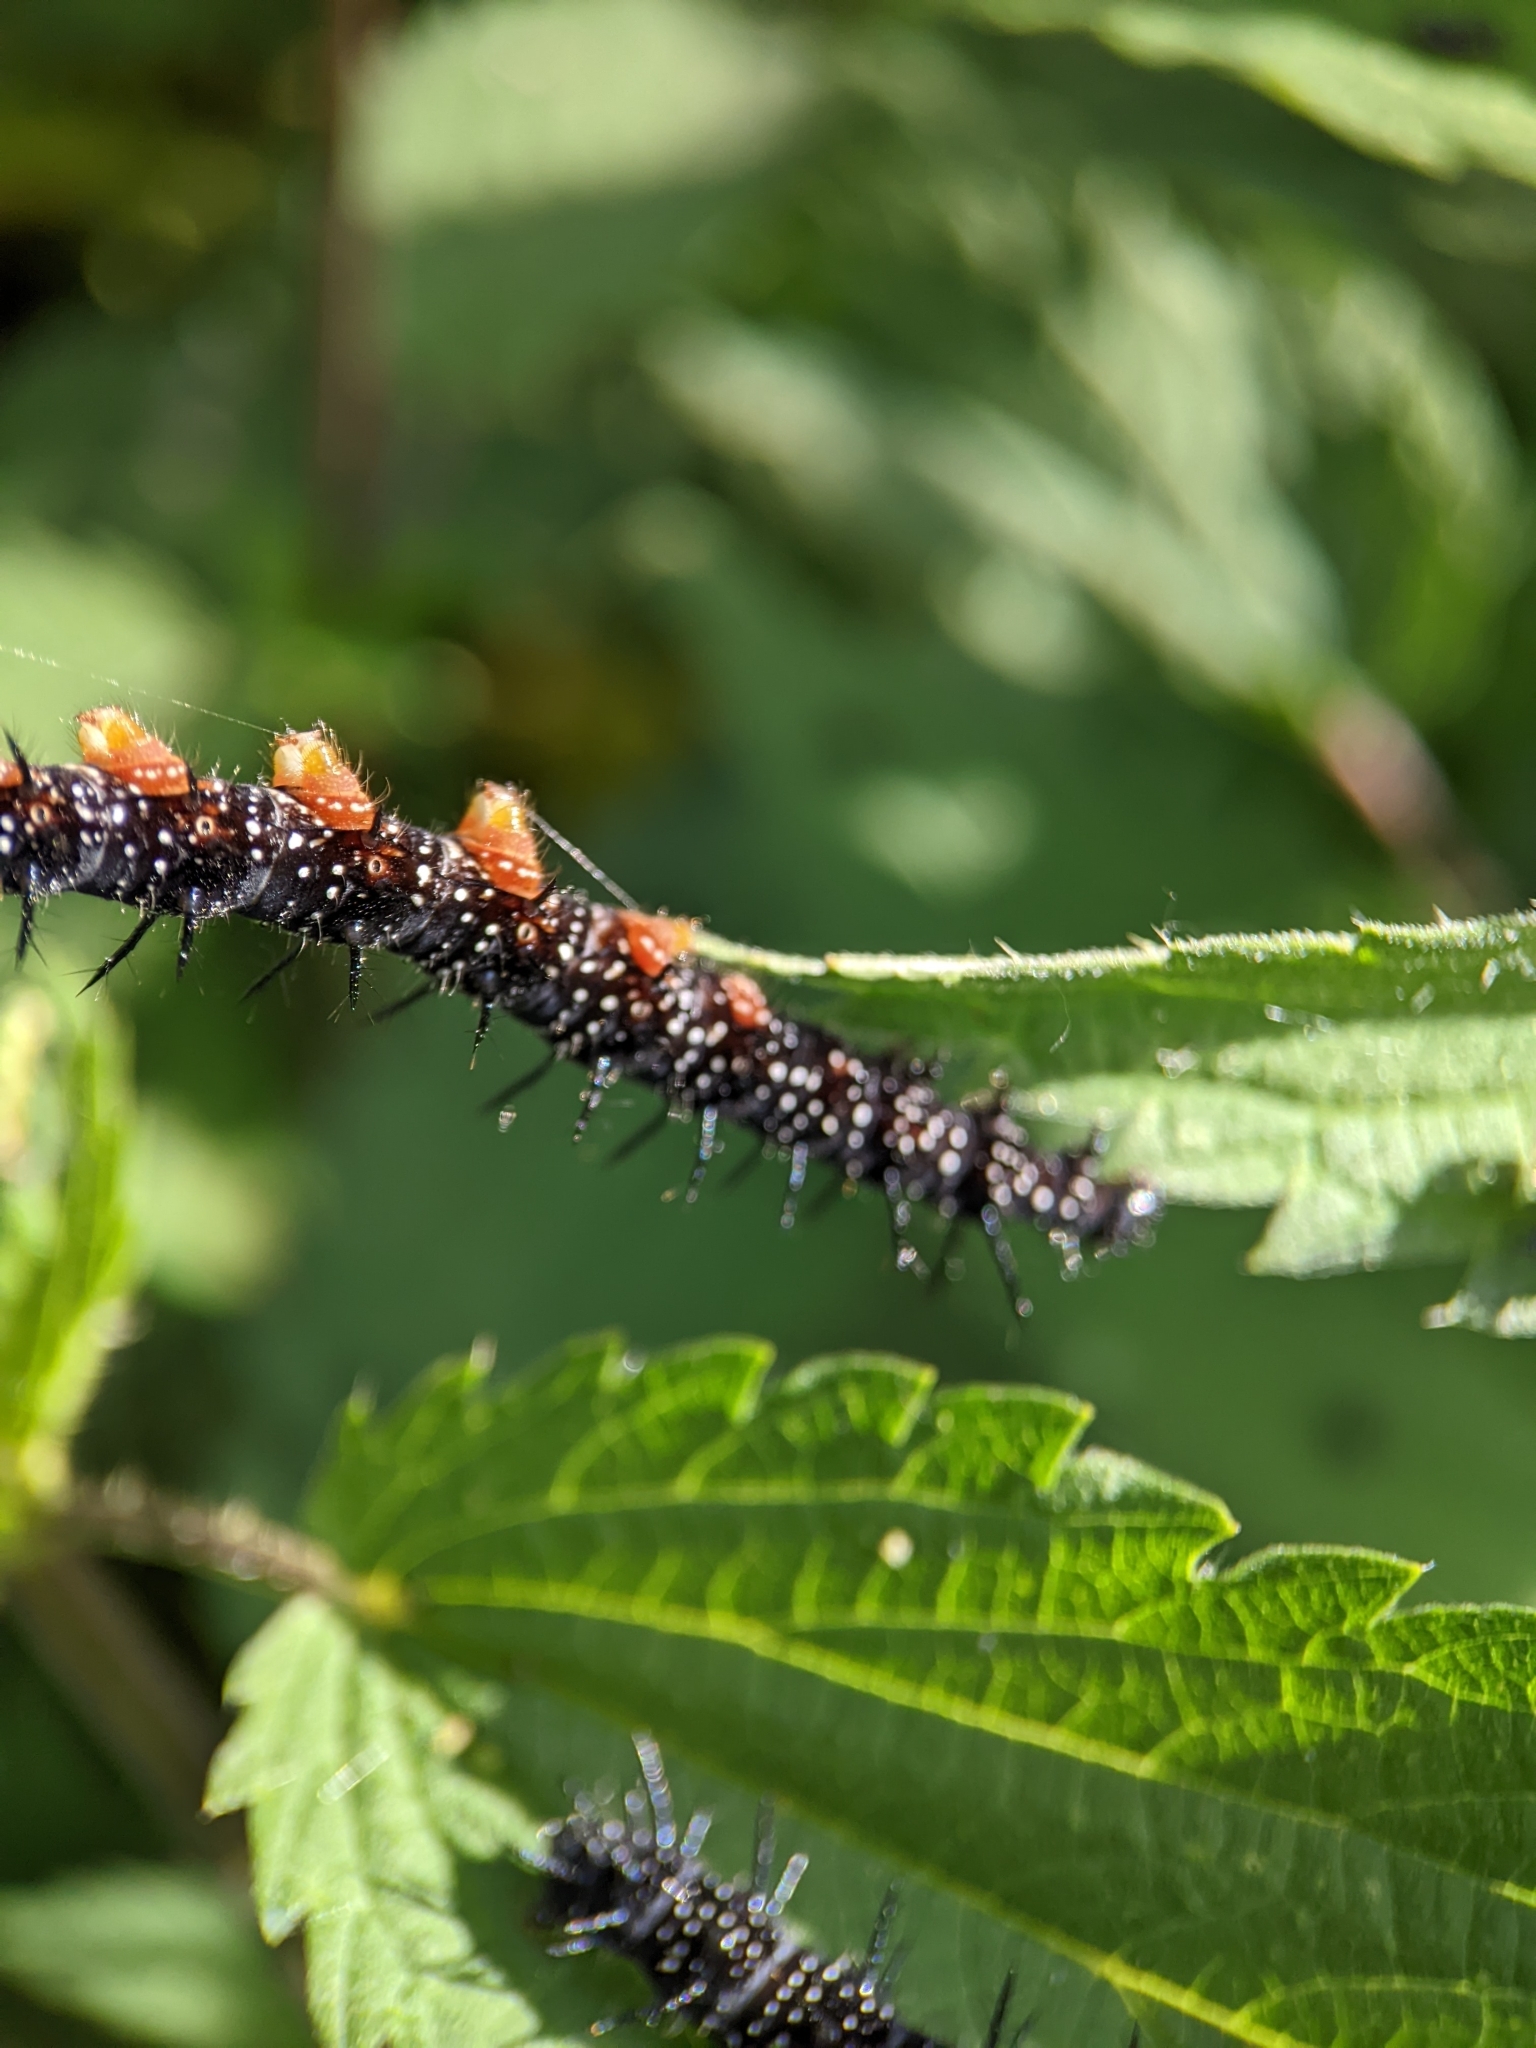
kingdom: Animalia
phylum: Arthropoda
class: Insecta
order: Lepidoptera
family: Nymphalidae
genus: Aglais
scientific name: Aglais io
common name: Peacock
